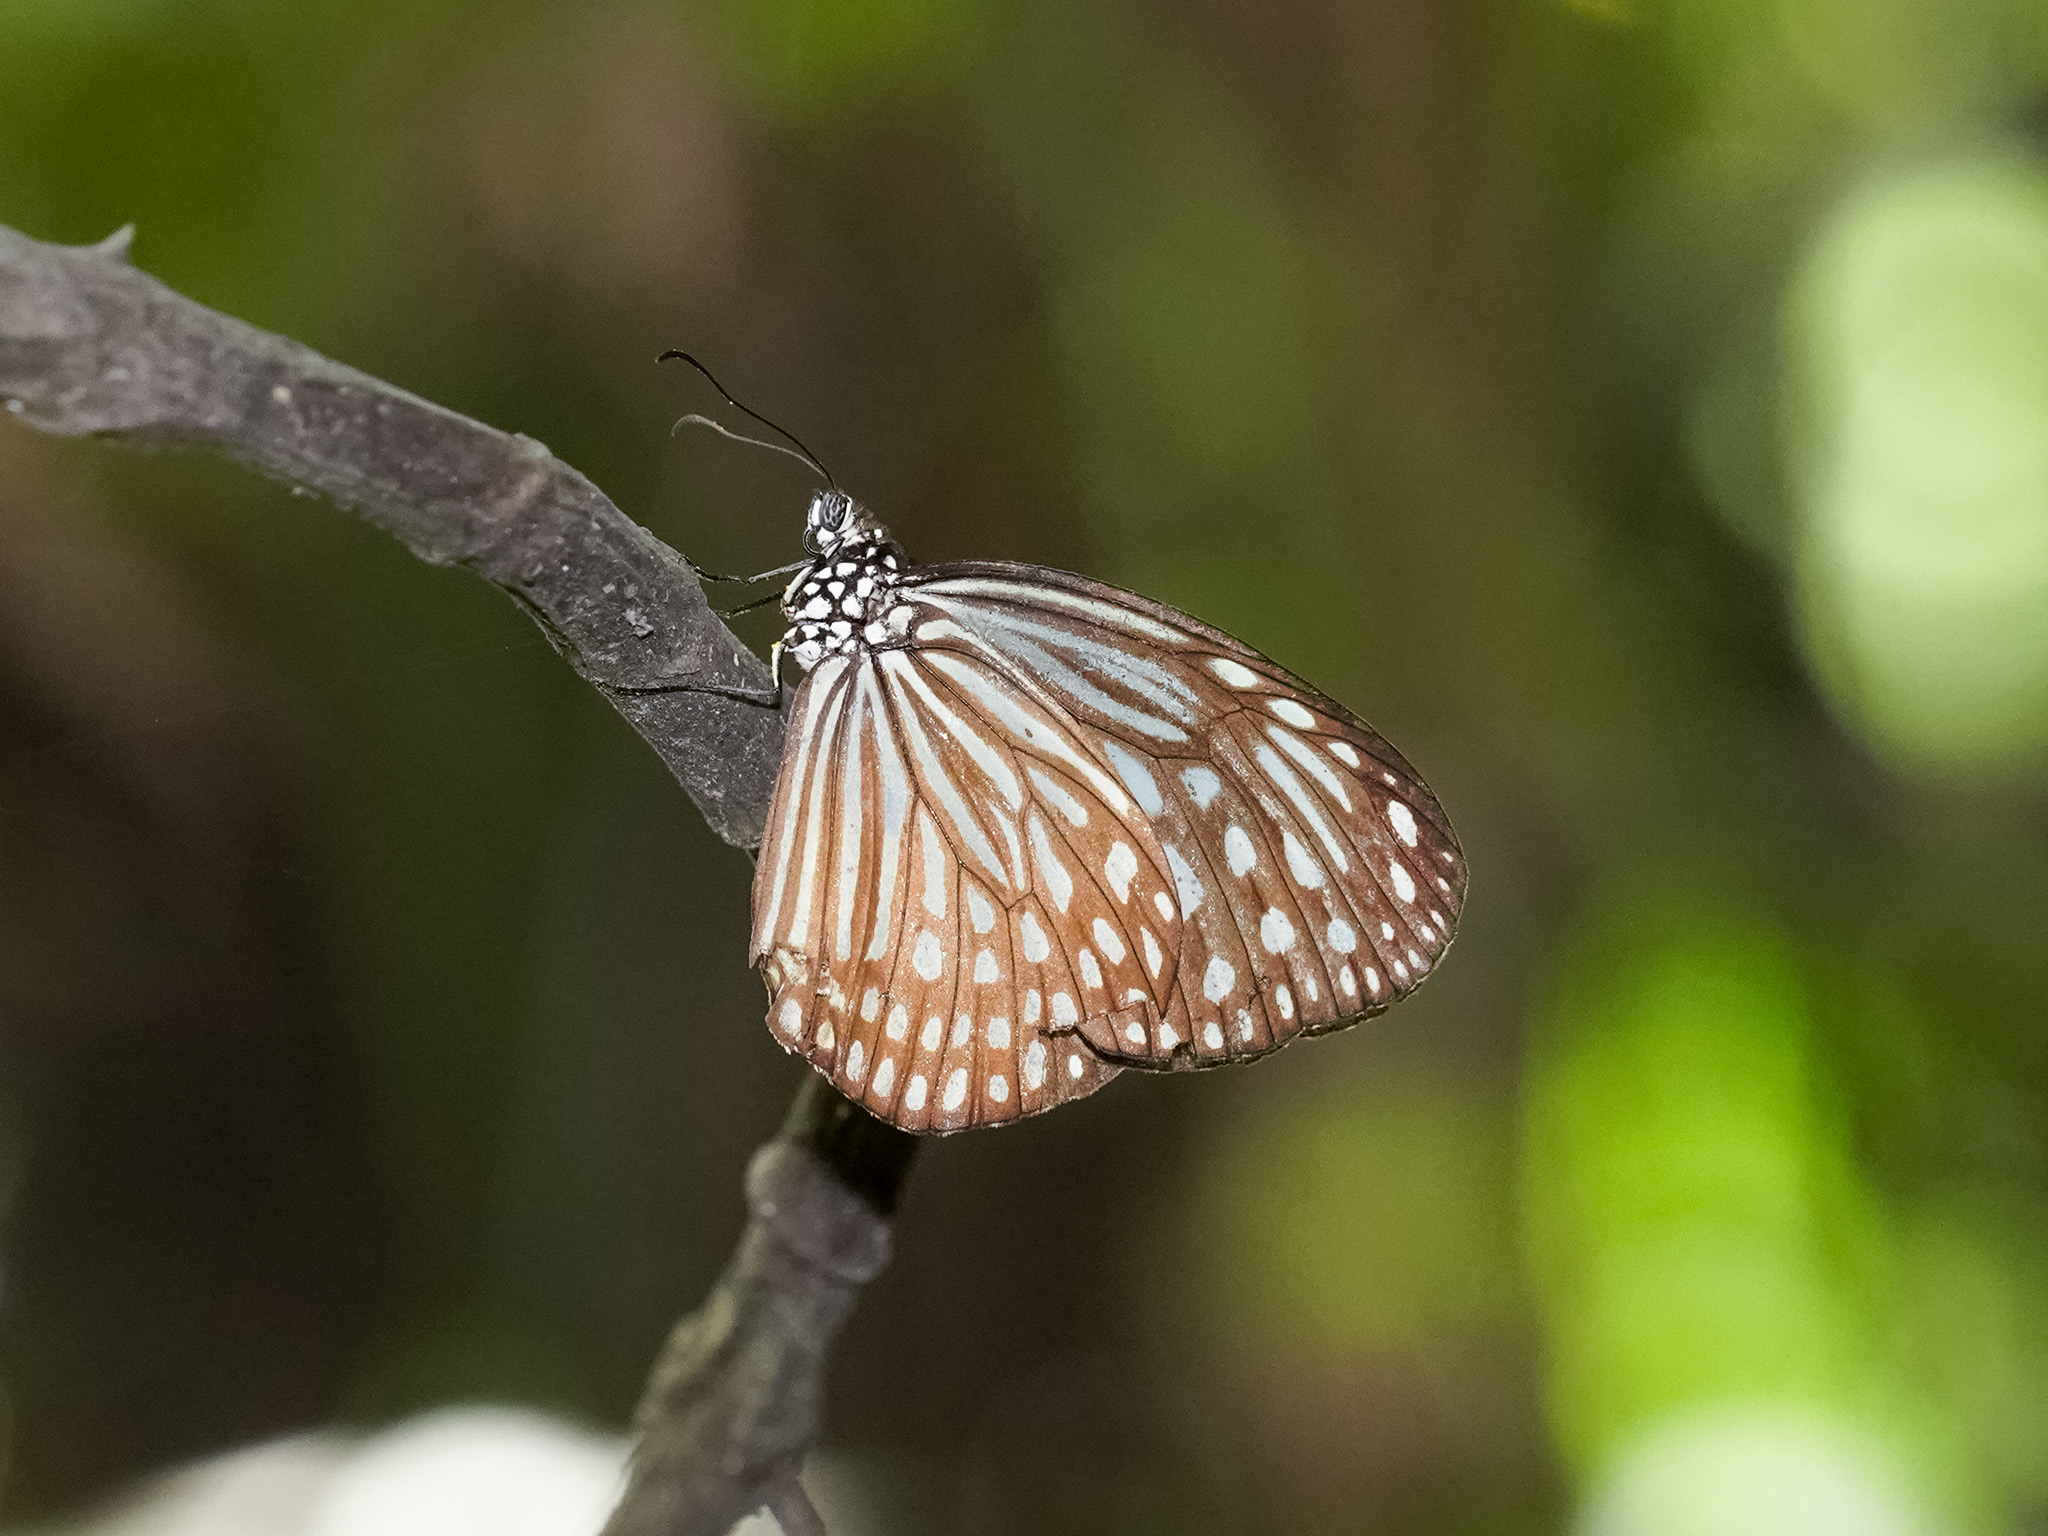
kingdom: Animalia
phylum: Arthropoda
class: Insecta
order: Lepidoptera
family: Nymphalidae
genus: Parantica
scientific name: Parantica agleoides
